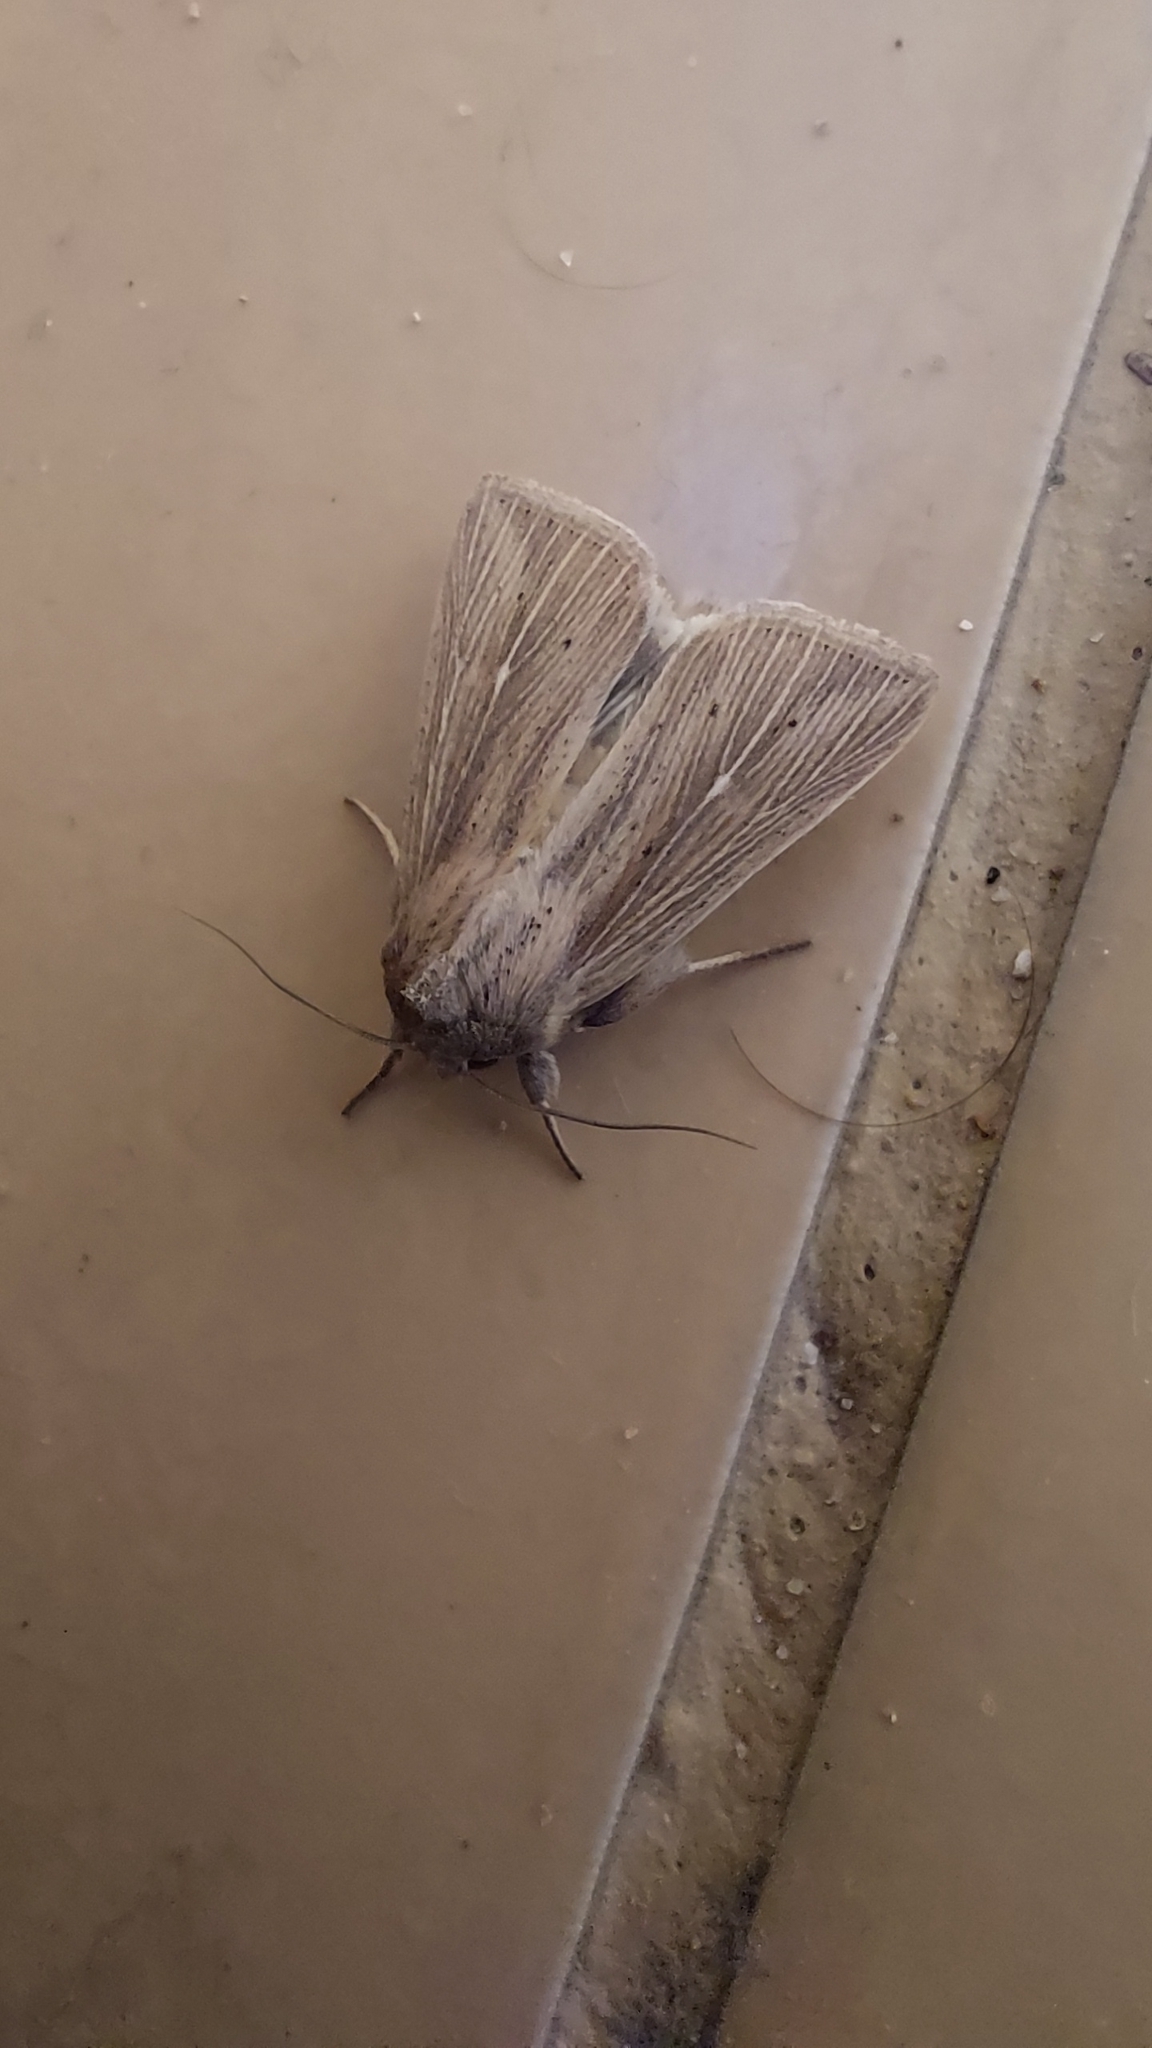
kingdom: Animalia
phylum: Arthropoda
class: Insecta
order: Lepidoptera
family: Noctuidae
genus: Mythimna
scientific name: Mythimna congrua
